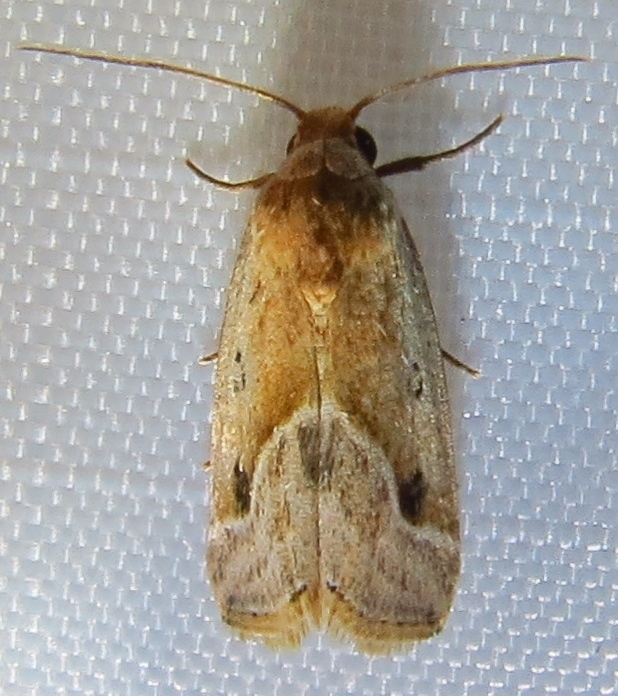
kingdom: Animalia
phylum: Arthropoda
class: Insecta
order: Lepidoptera
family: Noctuidae
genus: Micrathetis
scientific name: Micrathetis tecnion
